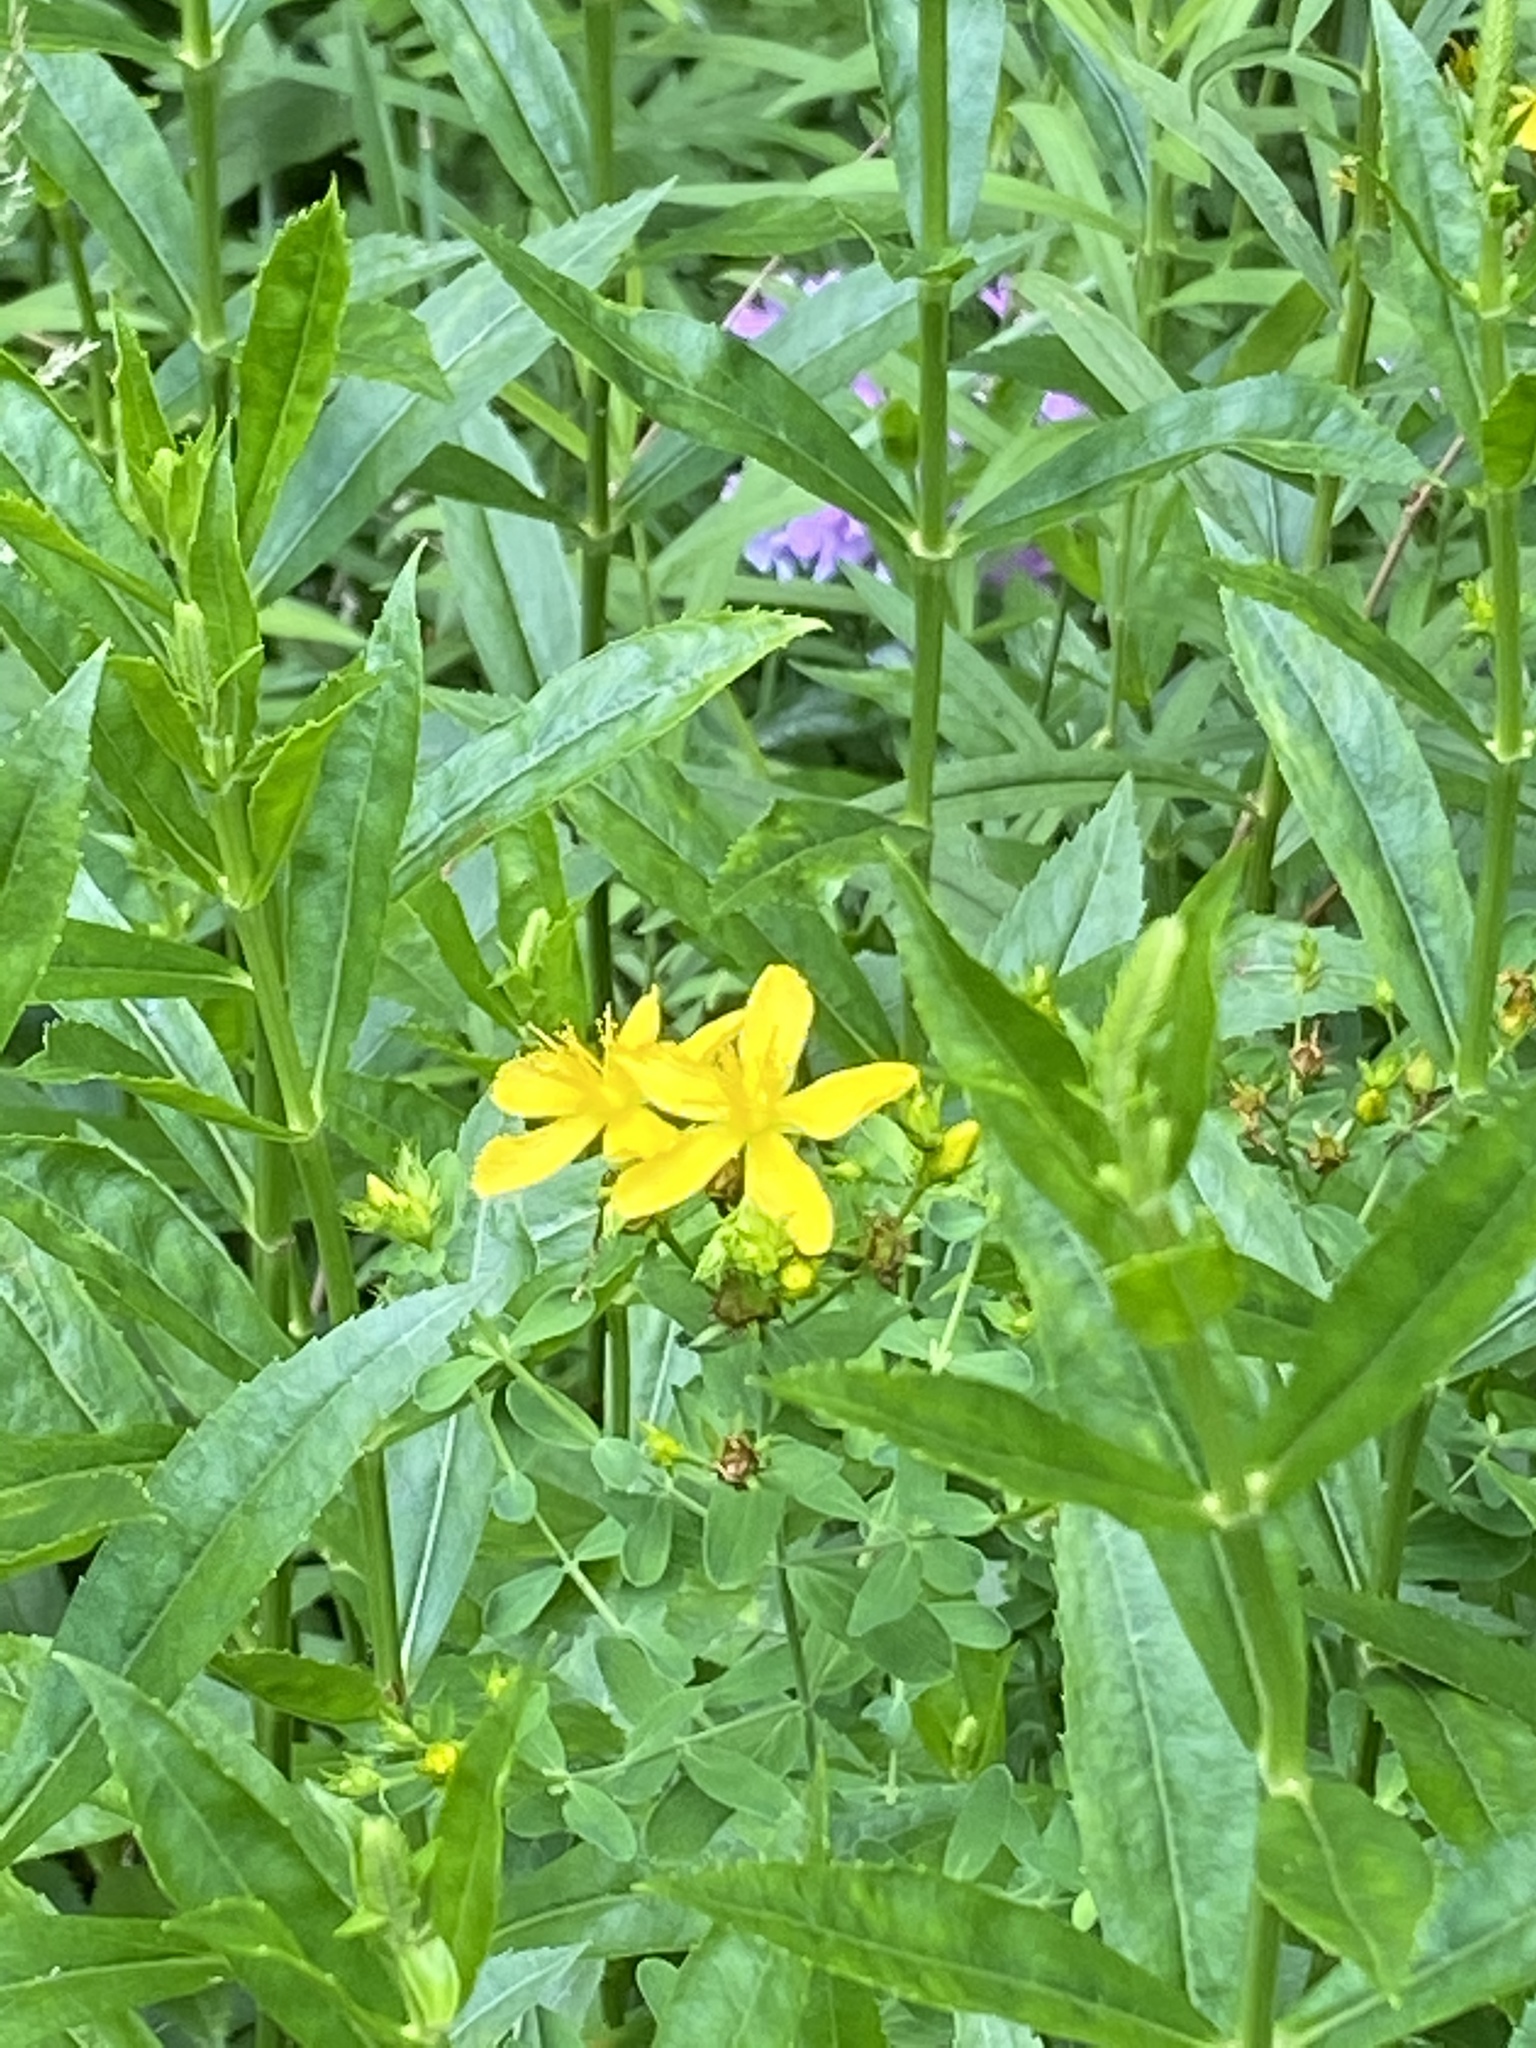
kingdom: Plantae
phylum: Tracheophyta
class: Magnoliopsida
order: Malpighiales
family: Hypericaceae
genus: Hypericum
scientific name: Hypericum perforatum
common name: Common st. johnswort
